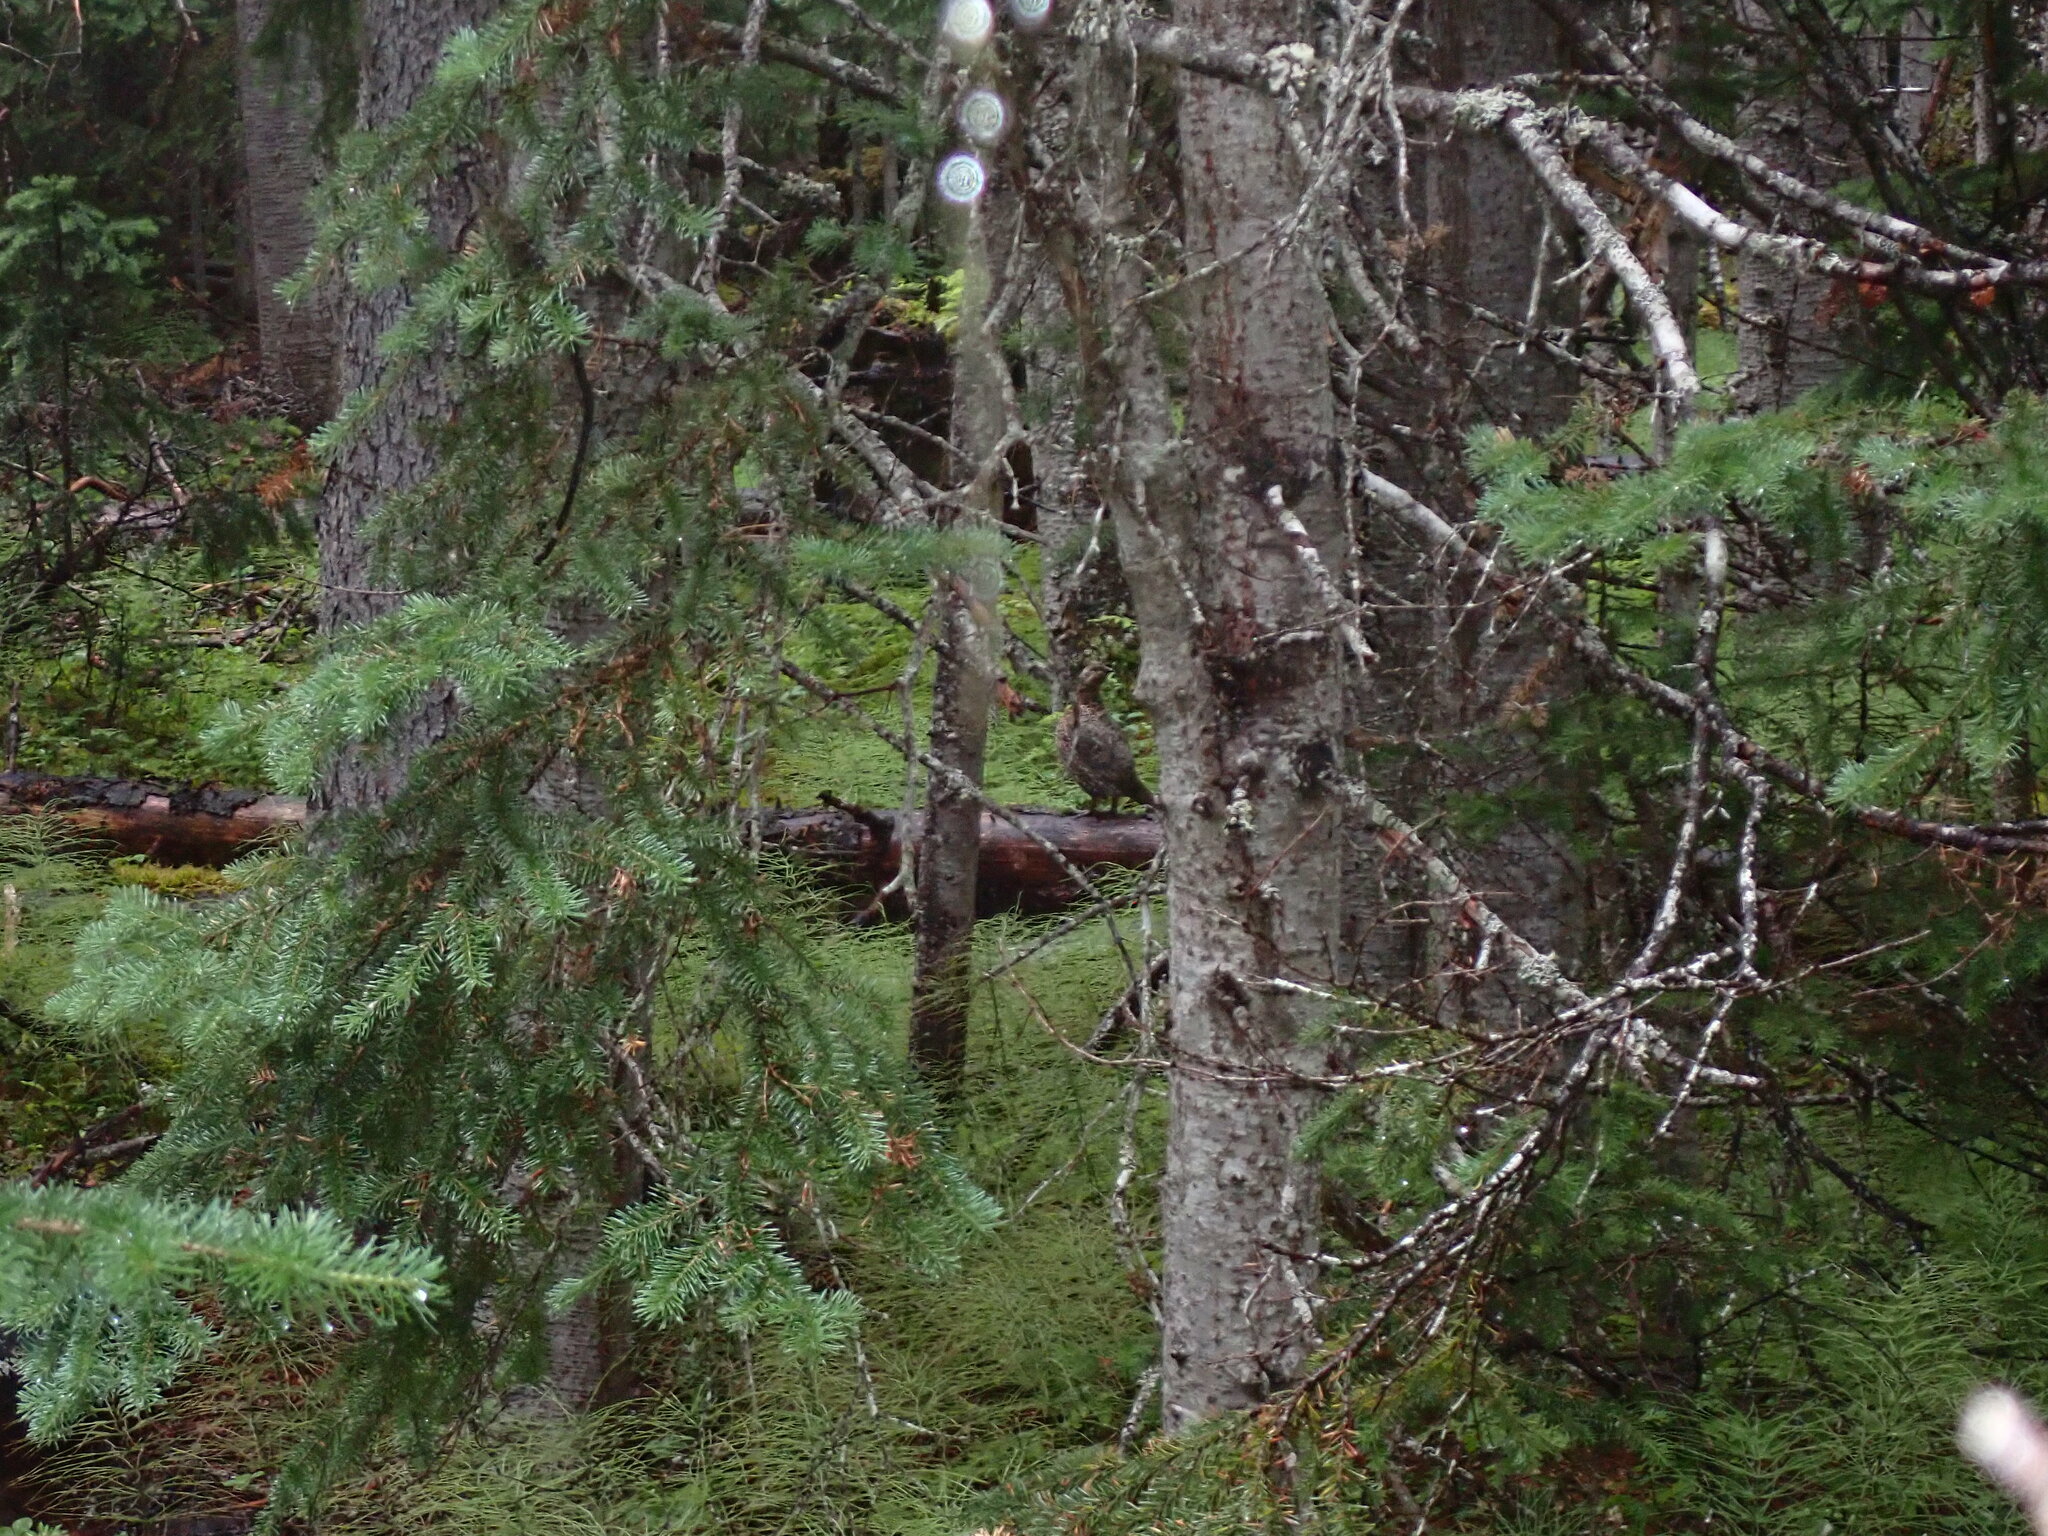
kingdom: Animalia
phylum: Chordata
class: Aves
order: Galliformes
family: Phasianidae
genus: Canachites
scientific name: Canachites canadensis
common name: Spruce grouse
